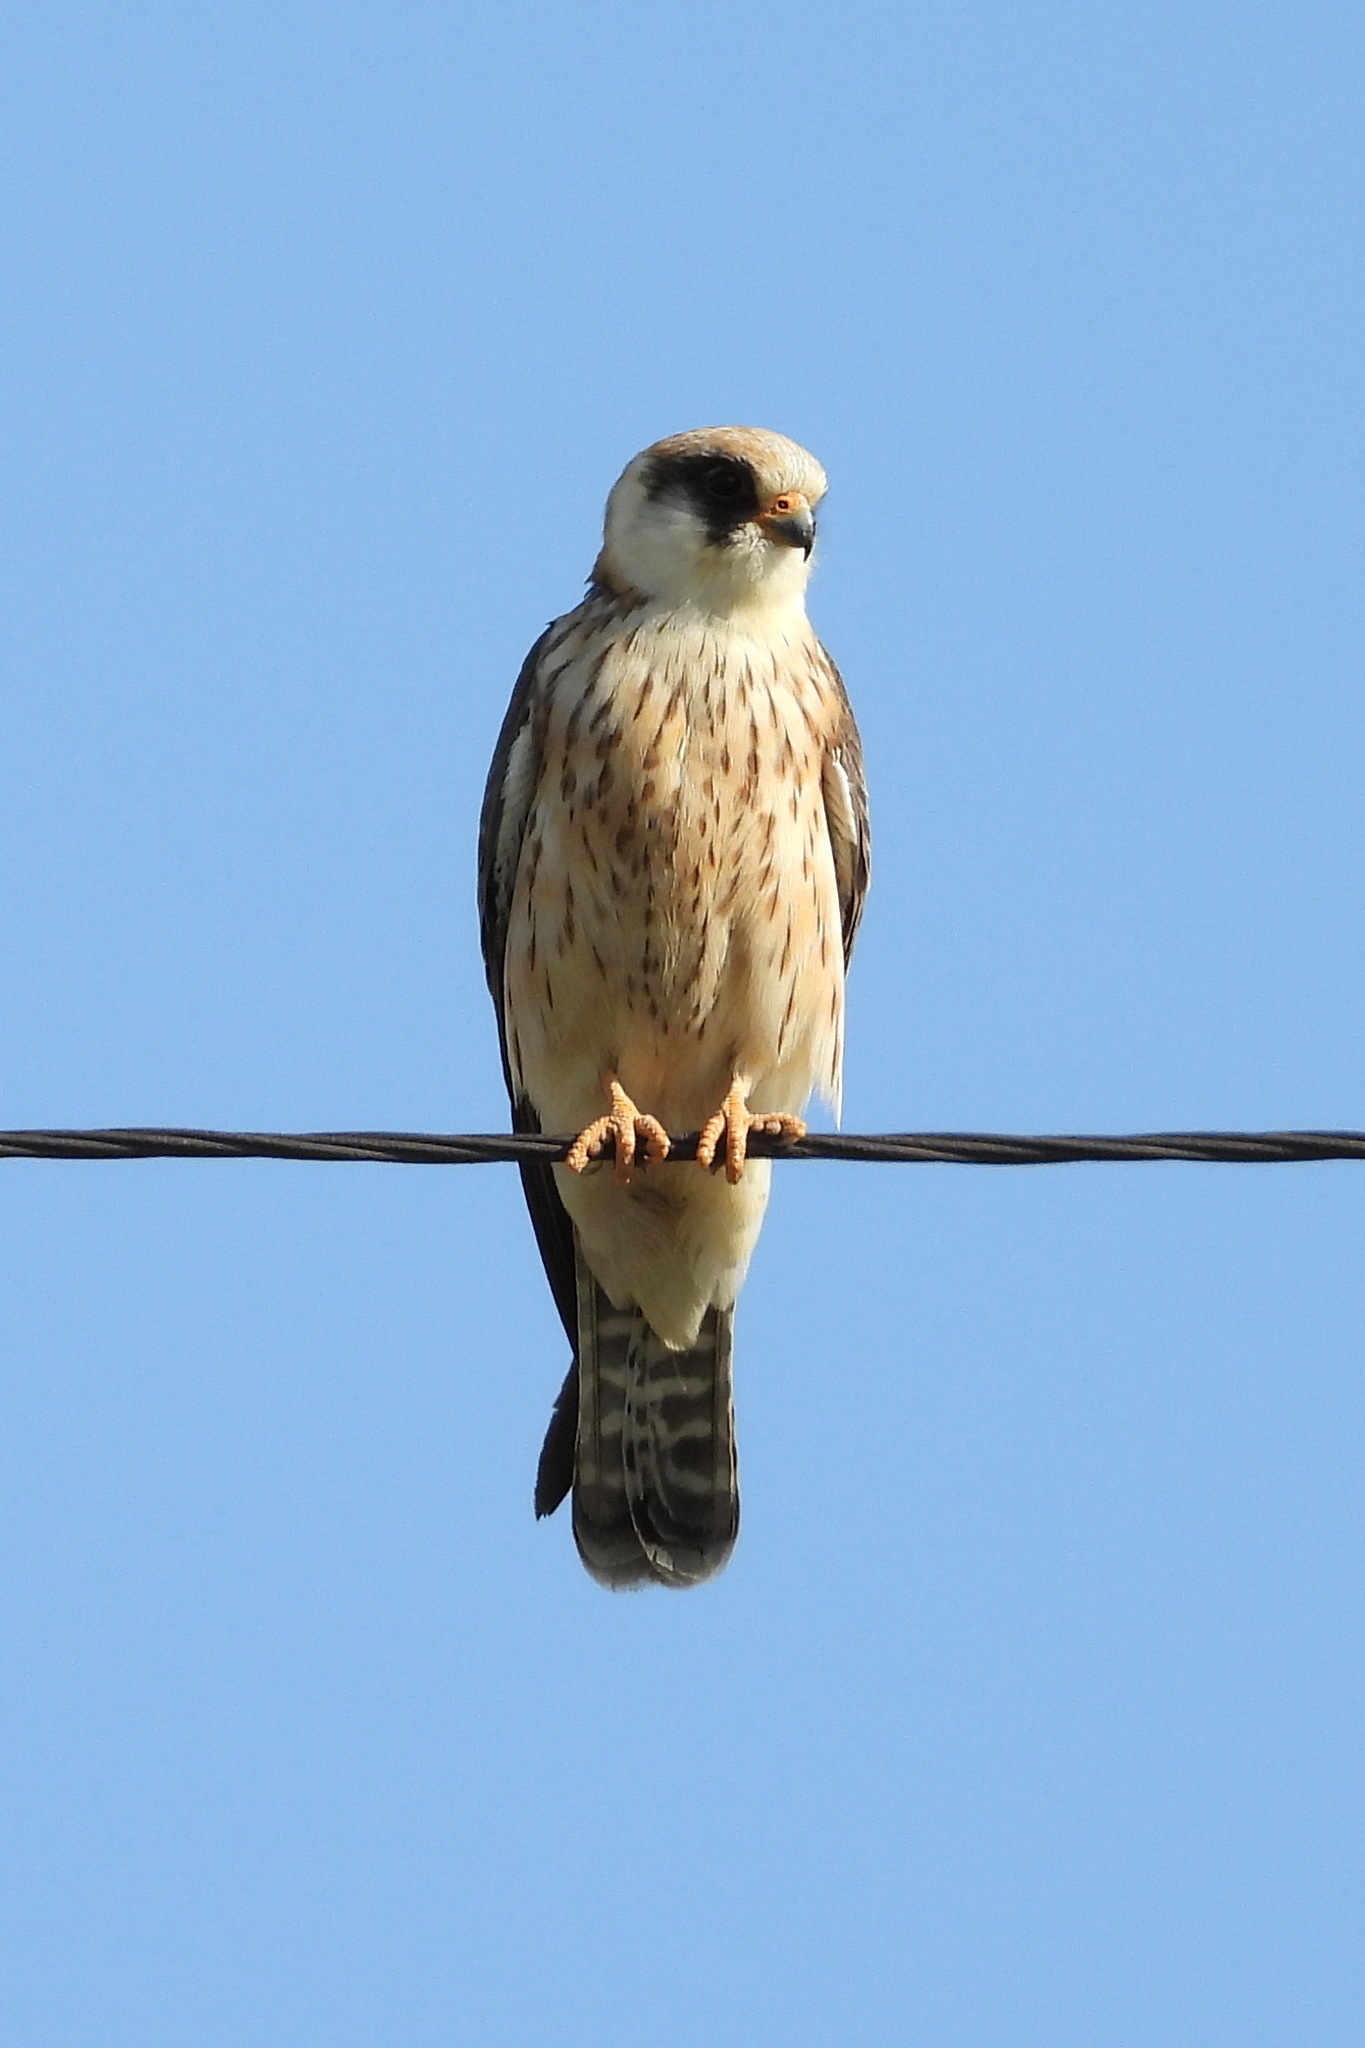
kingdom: Animalia
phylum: Chordata
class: Aves
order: Falconiformes
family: Falconidae
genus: Falco
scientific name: Falco vespertinus
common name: Red-footed falcon
